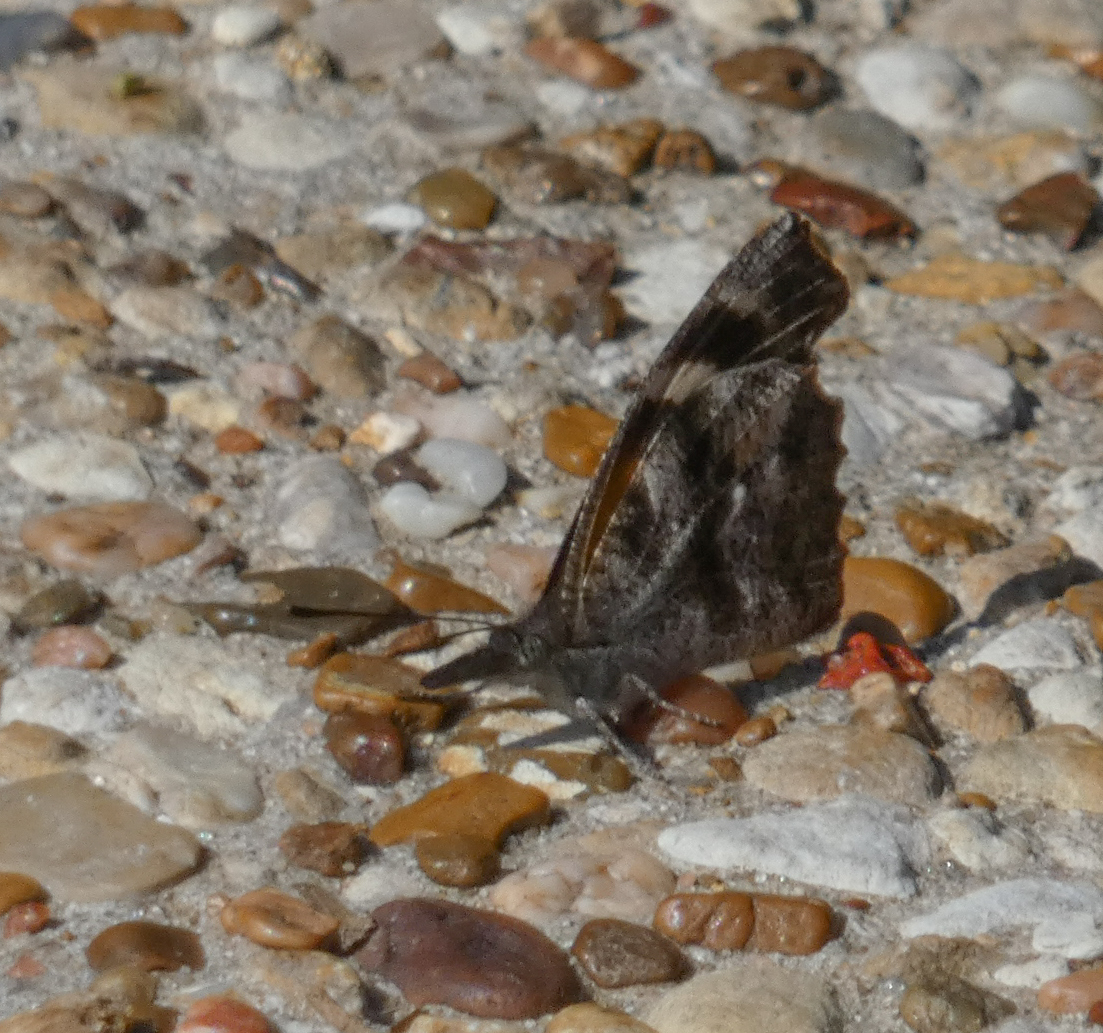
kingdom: Animalia
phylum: Arthropoda
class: Insecta
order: Lepidoptera
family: Nymphalidae
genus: Libytheana
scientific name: Libytheana carinenta
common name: American snout
